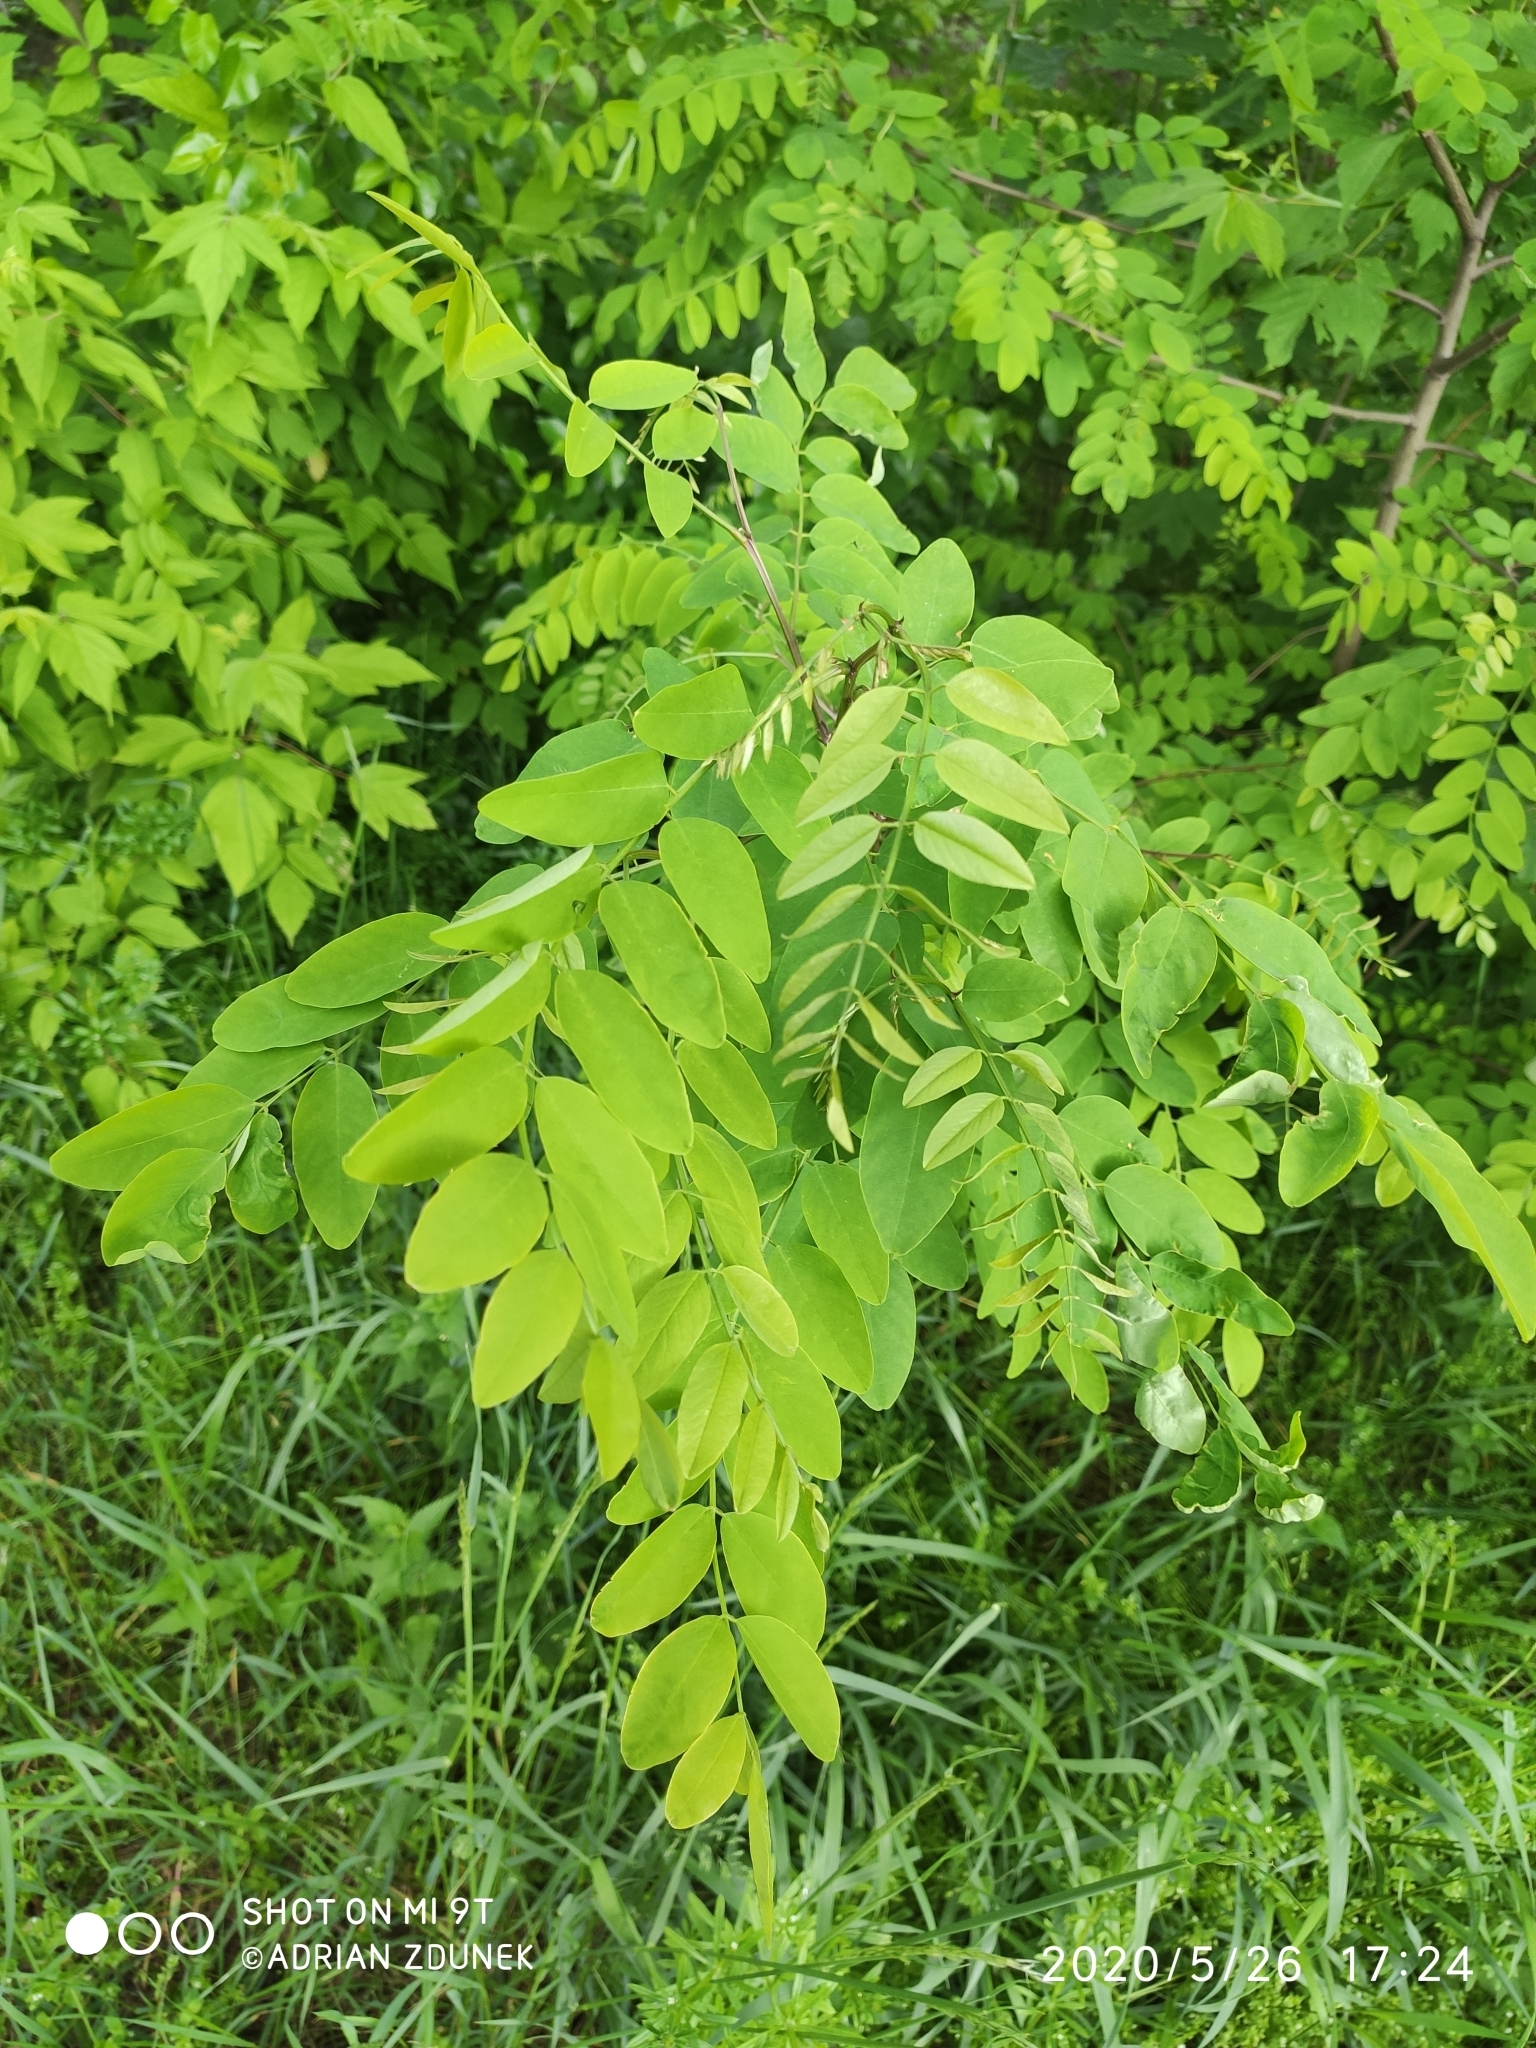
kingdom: Plantae
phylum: Tracheophyta
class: Magnoliopsida
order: Fabales
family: Fabaceae
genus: Robinia
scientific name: Robinia pseudoacacia
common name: Black locust
